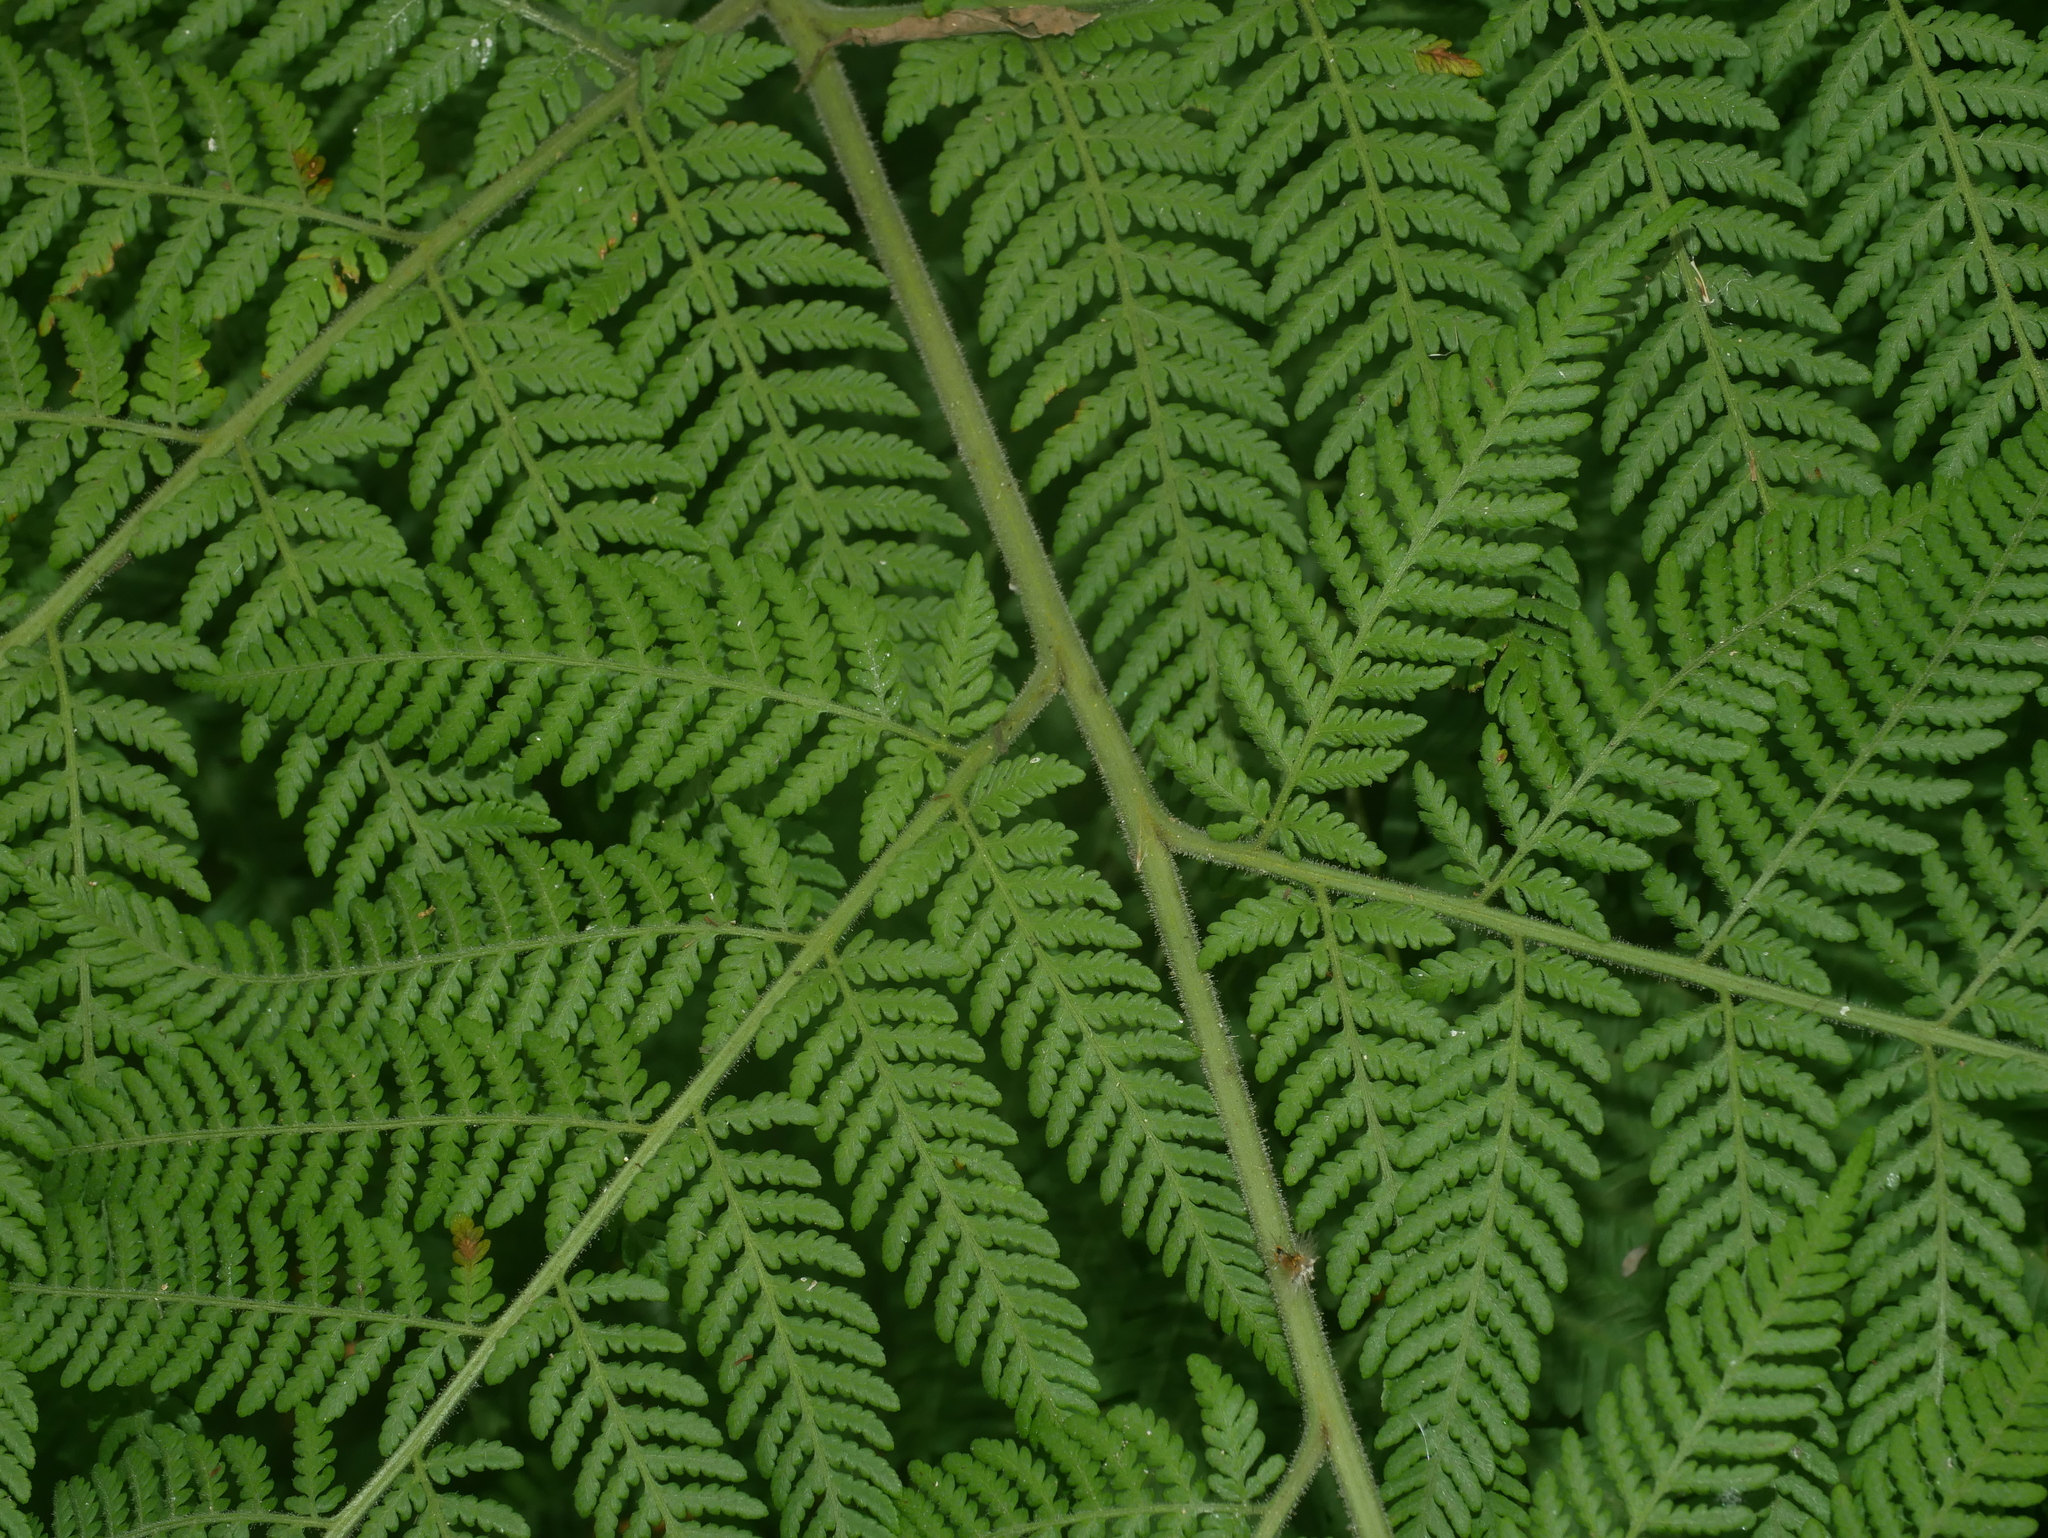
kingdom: Plantae
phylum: Tracheophyta
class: Polypodiopsida
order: Polypodiales
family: Dennstaedtiaceae
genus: Hypolepis
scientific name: Hypolepis tenuifolia
